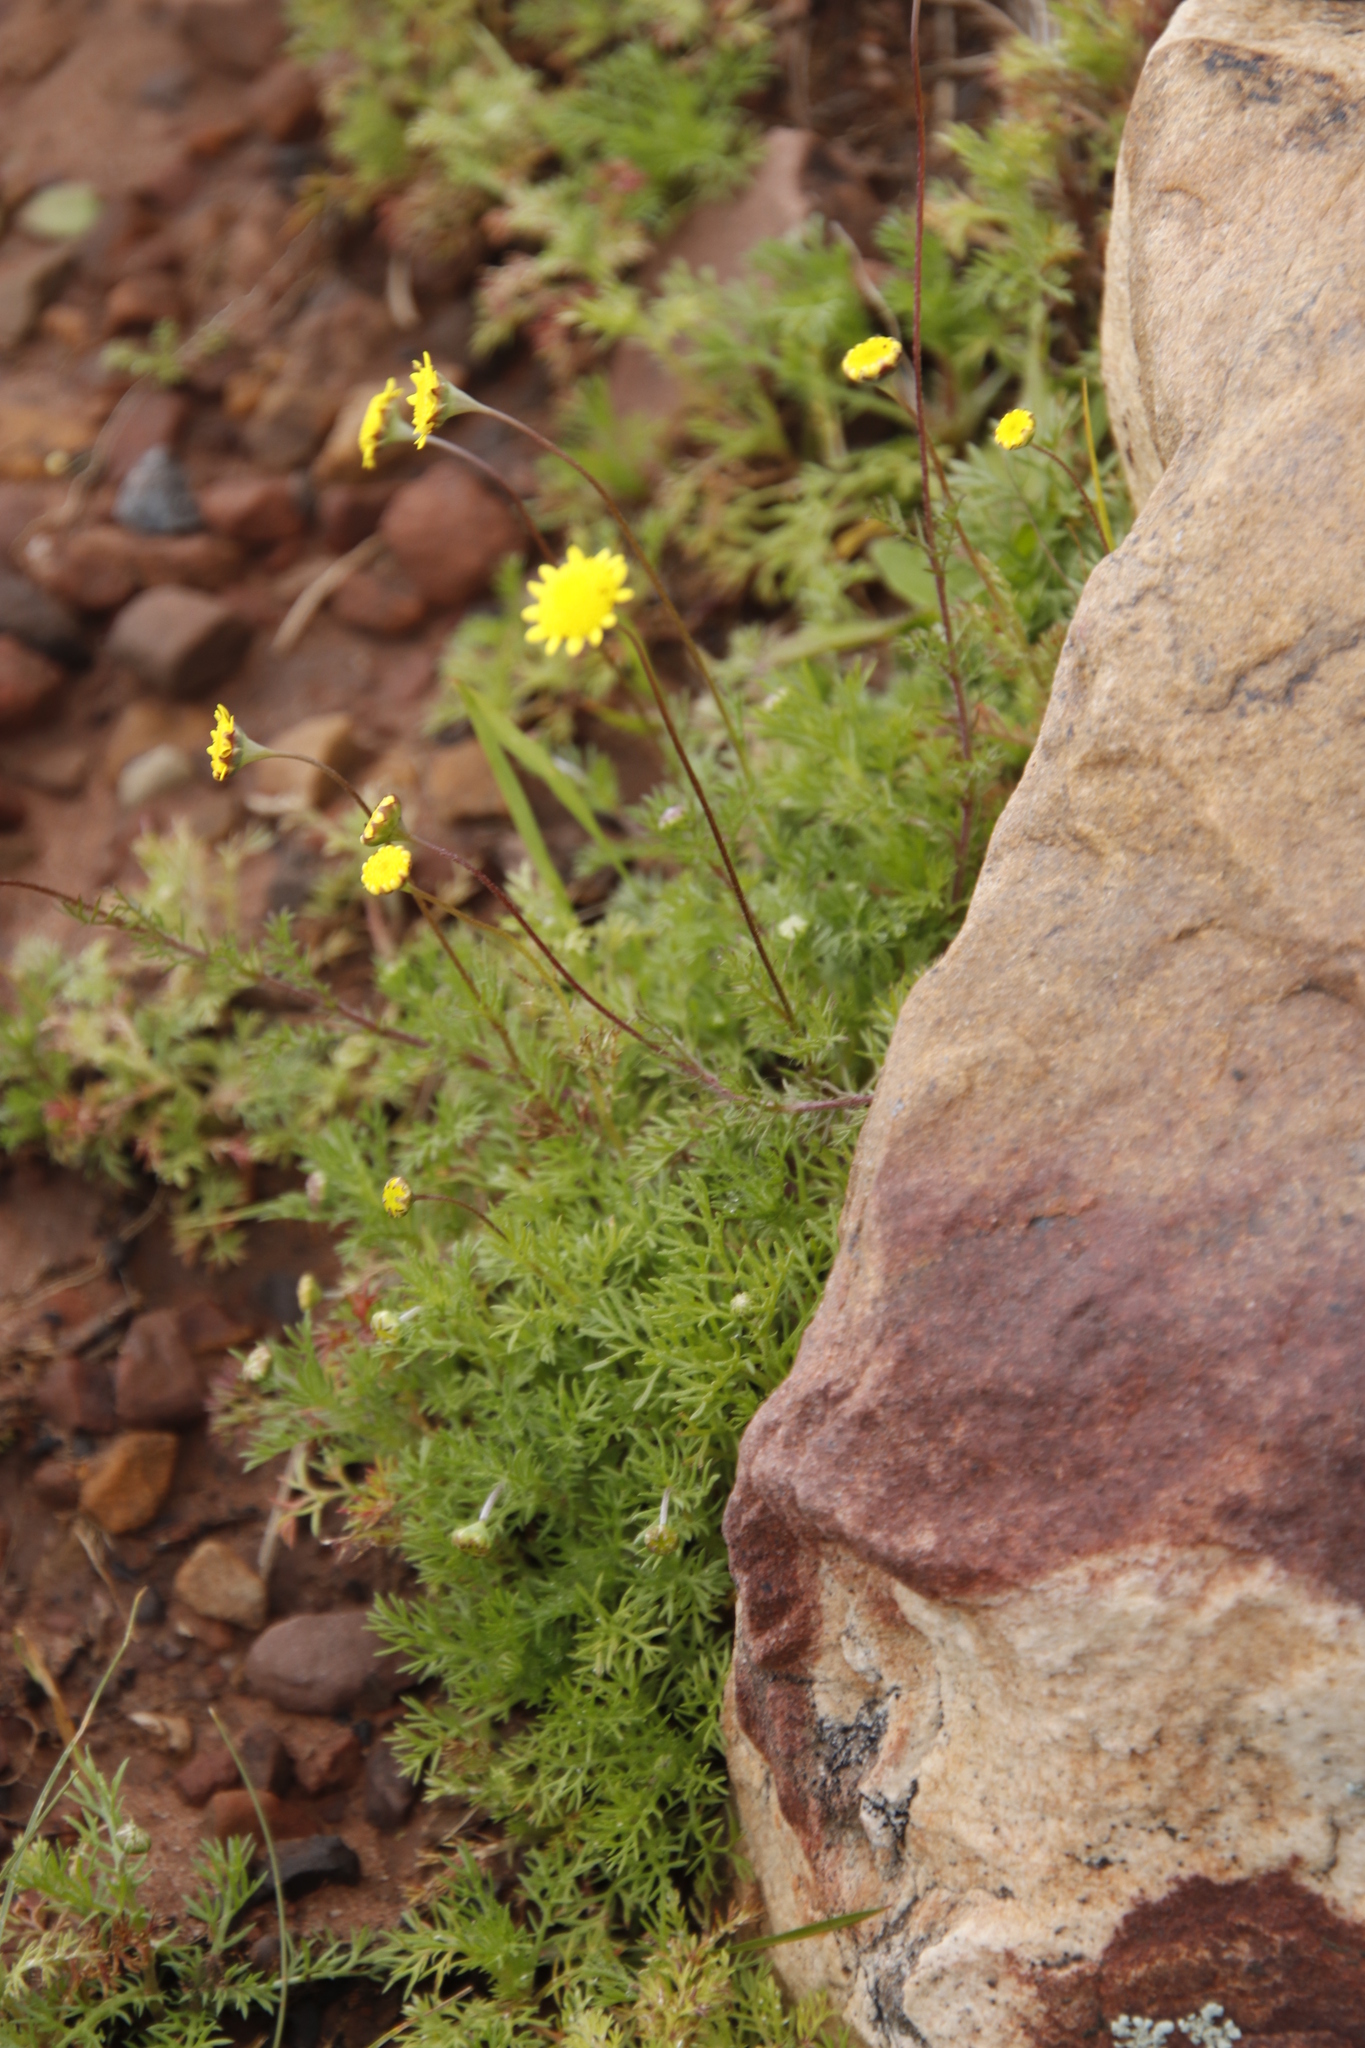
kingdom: Plantae
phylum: Tracheophyta
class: Magnoliopsida
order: Asterales
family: Asteraceae
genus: Cotula
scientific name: Cotula pruinosa
